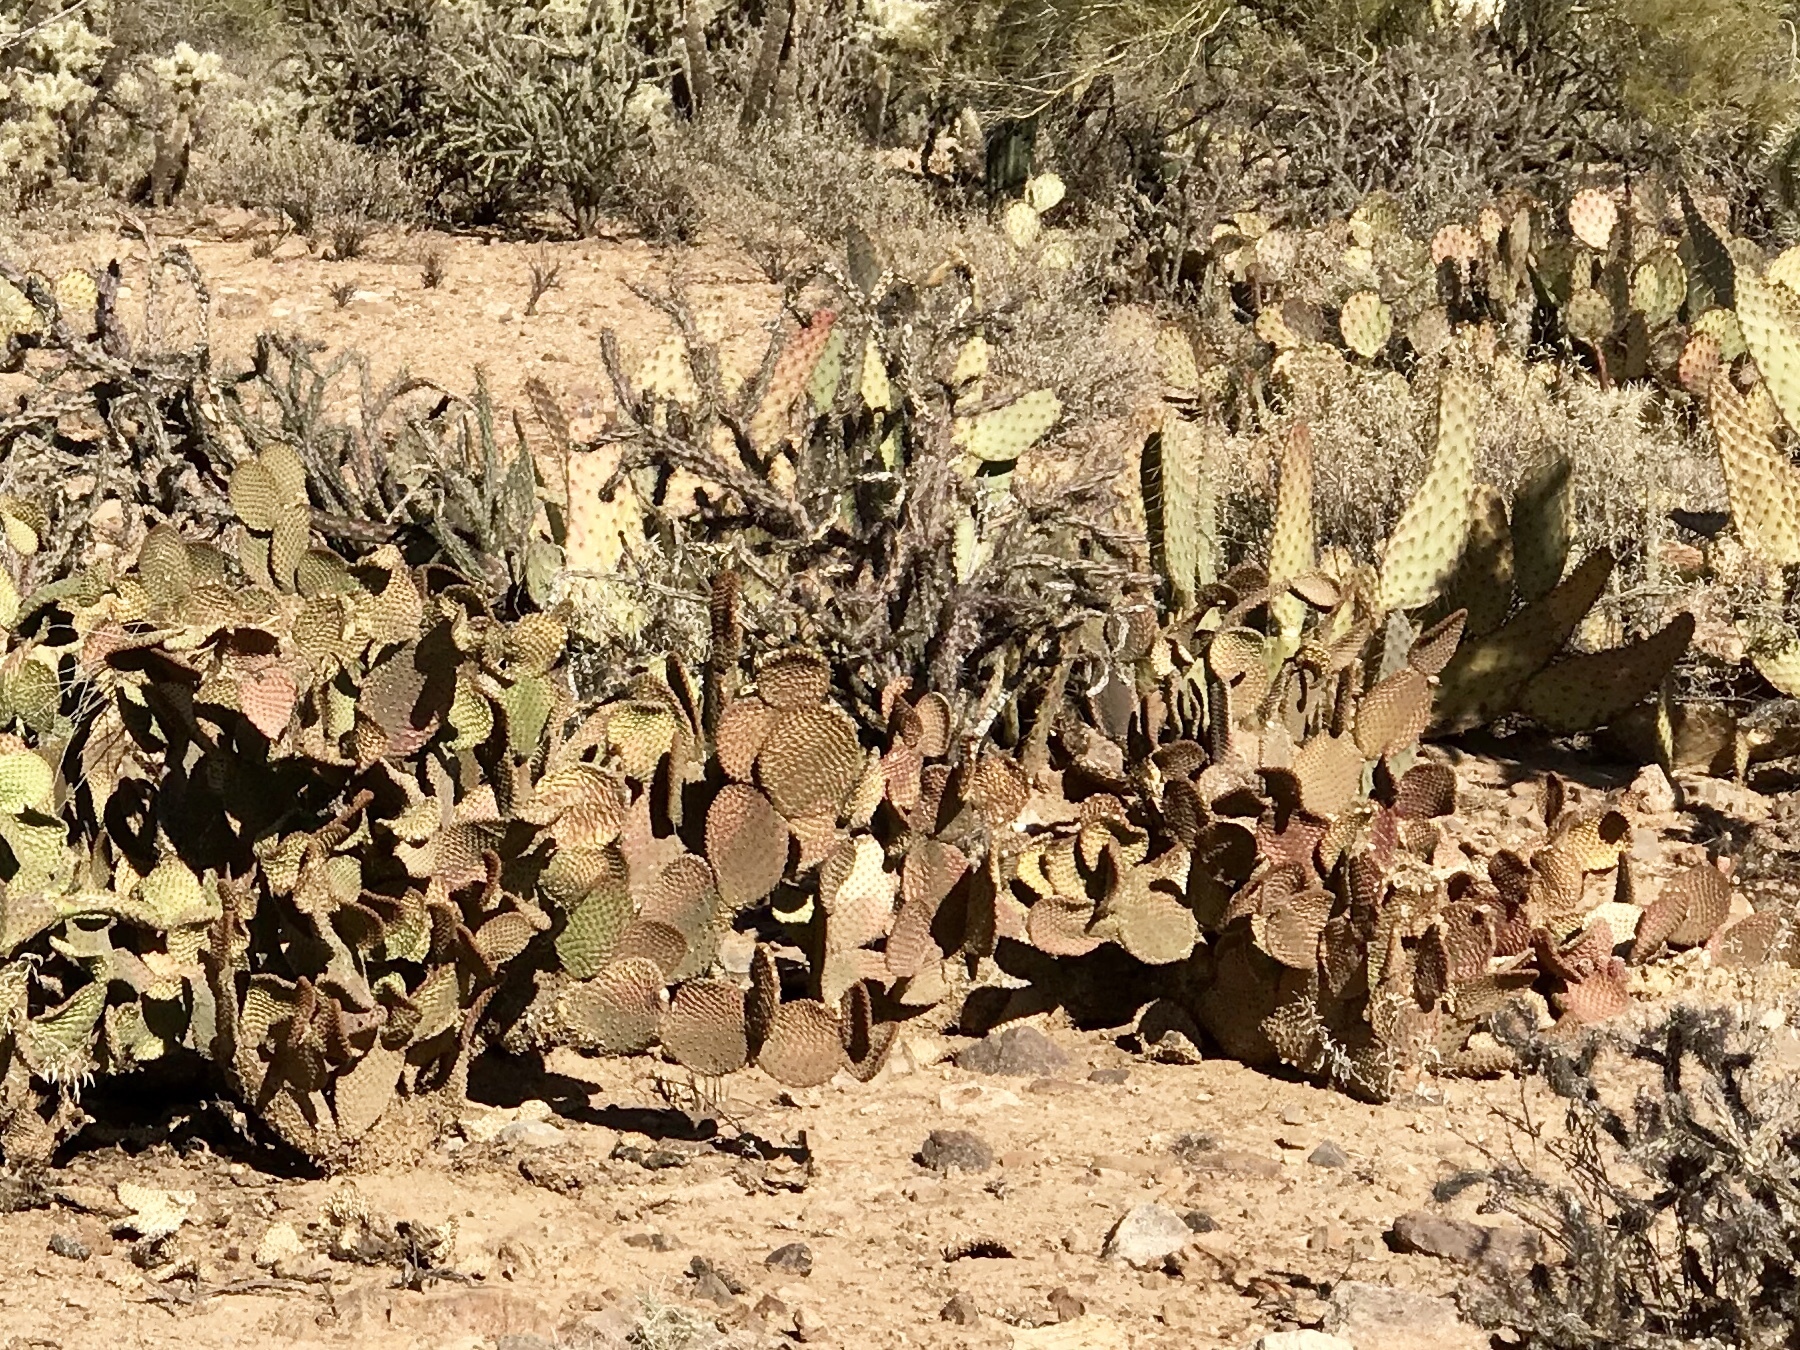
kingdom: Plantae
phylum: Tracheophyta
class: Magnoliopsida
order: Caryophyllales
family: Cactaceae
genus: Opuntia
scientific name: Opuntia microdasys
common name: Angel's-wings
